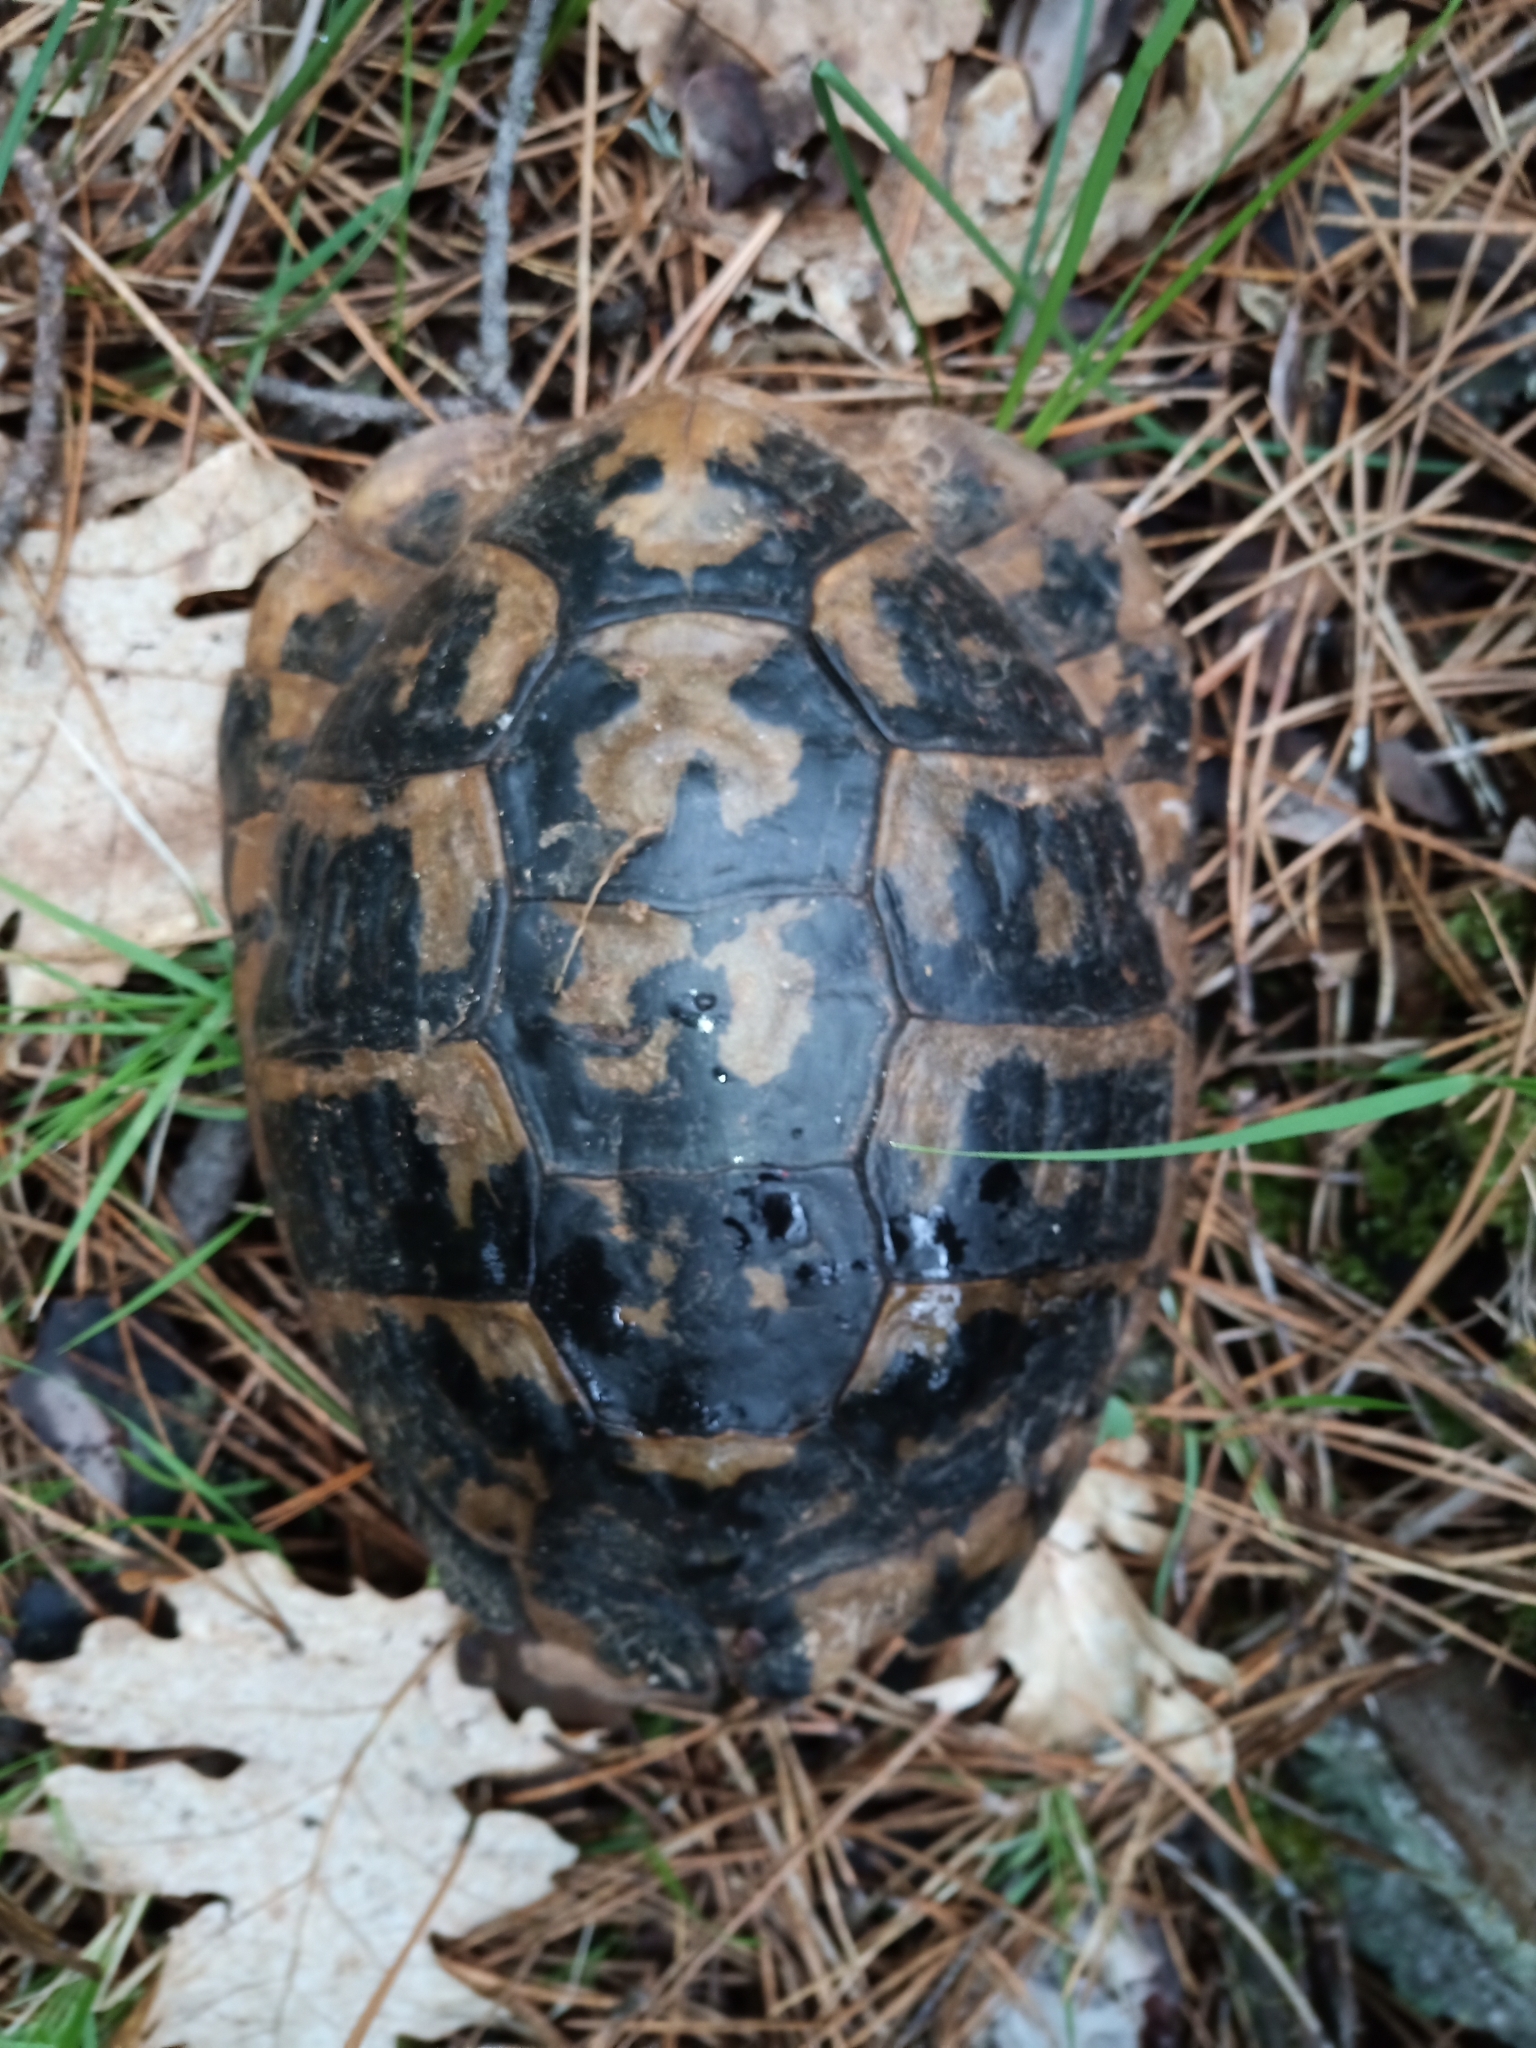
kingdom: Animalia
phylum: Chordata
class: Testudines
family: Testudinidae
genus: Testudo
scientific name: Testudo hermanni
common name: Hermann's tortoise
